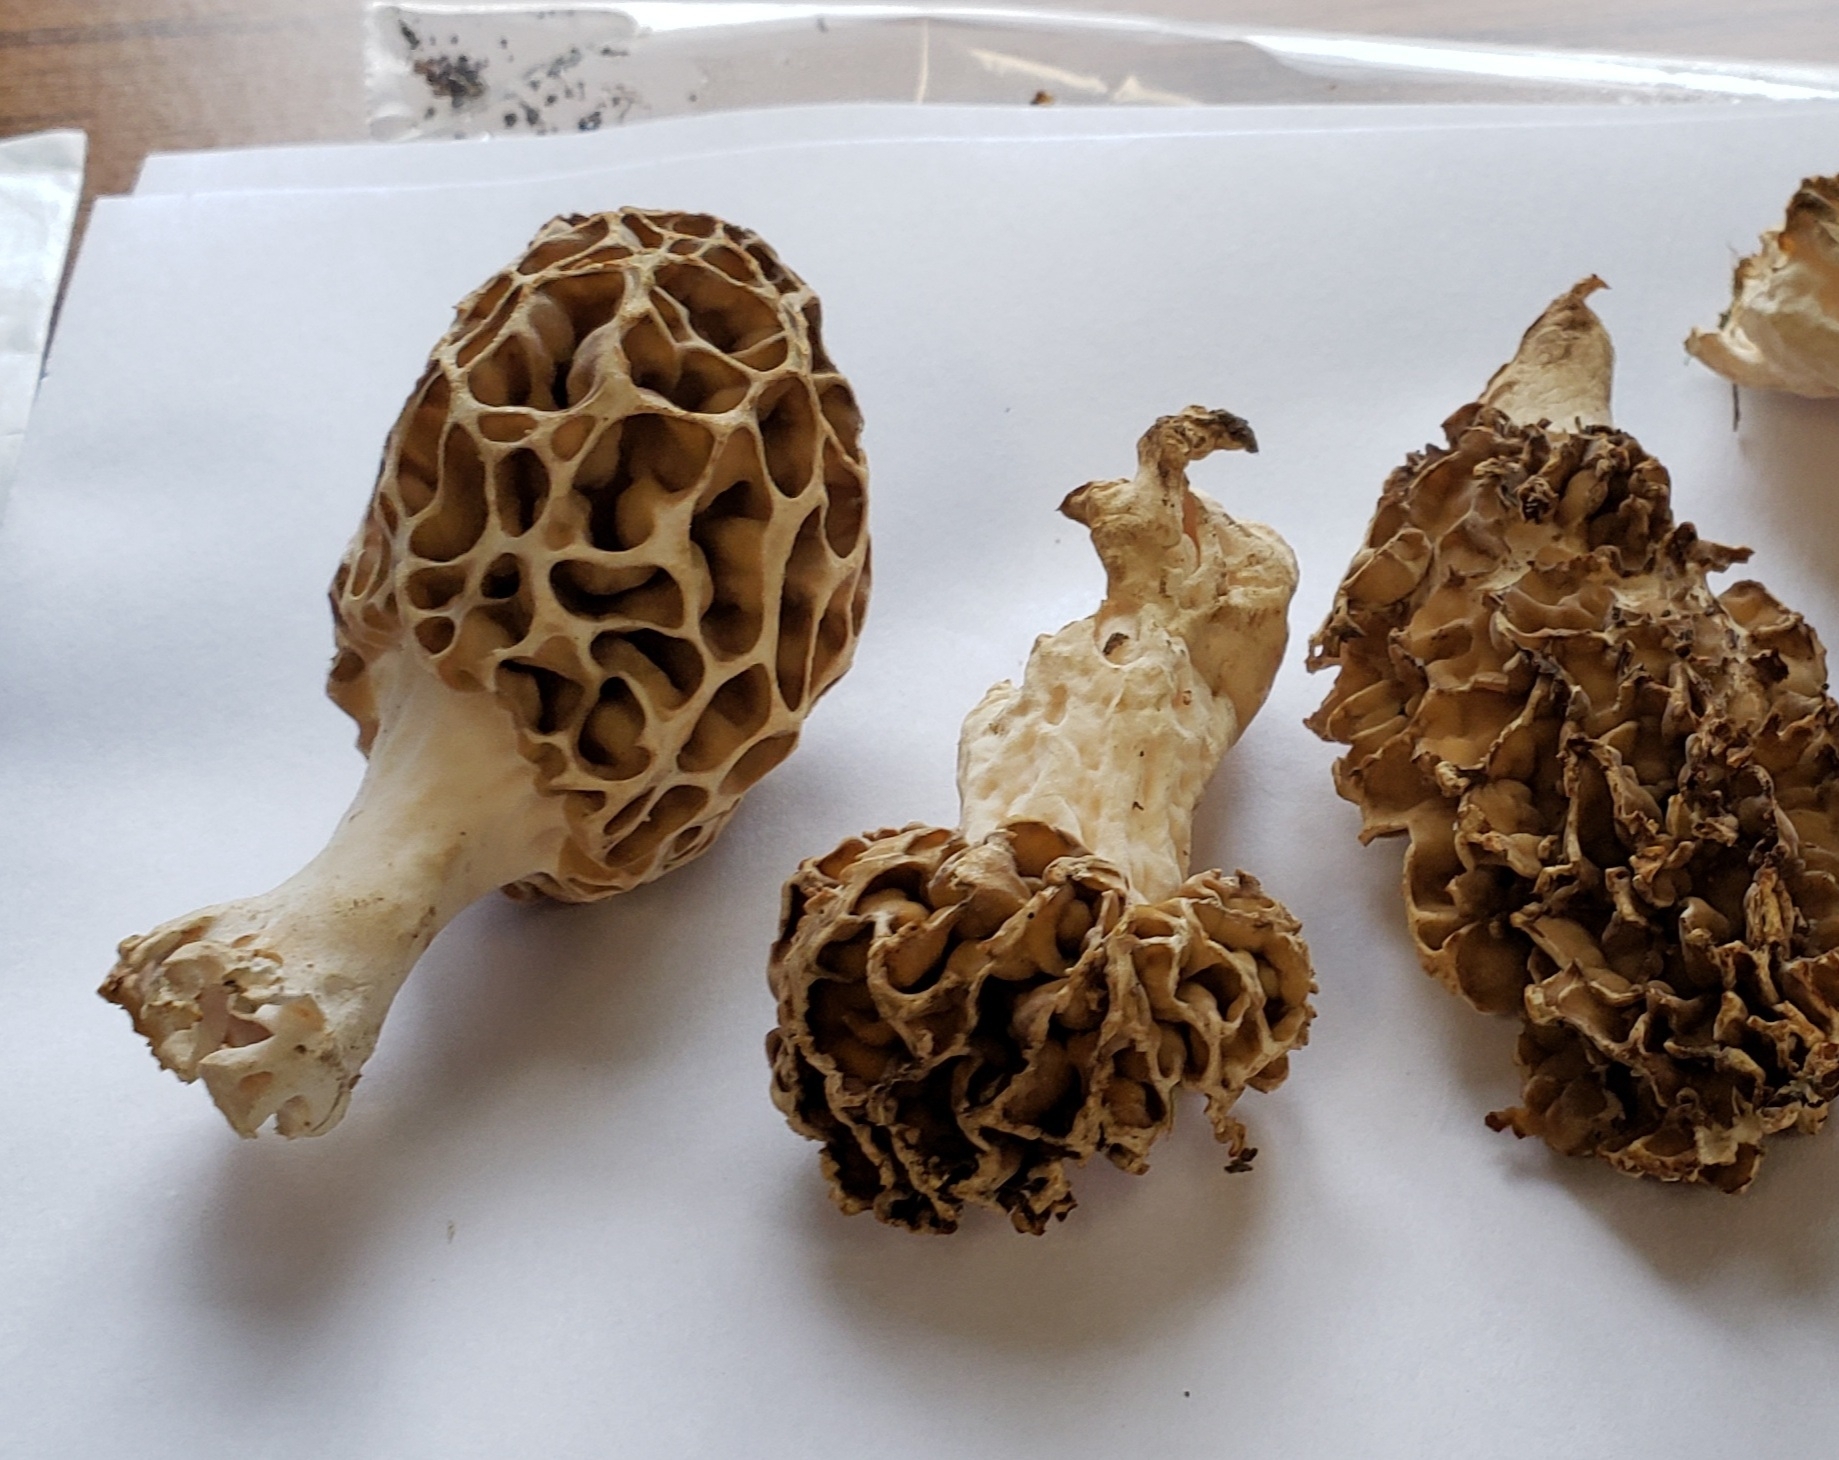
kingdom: Fungi
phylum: Ascomycota
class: Pezizomycetes
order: Pezizales
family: Morchellaceae
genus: Morchella
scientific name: Morchella americana
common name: White morel
